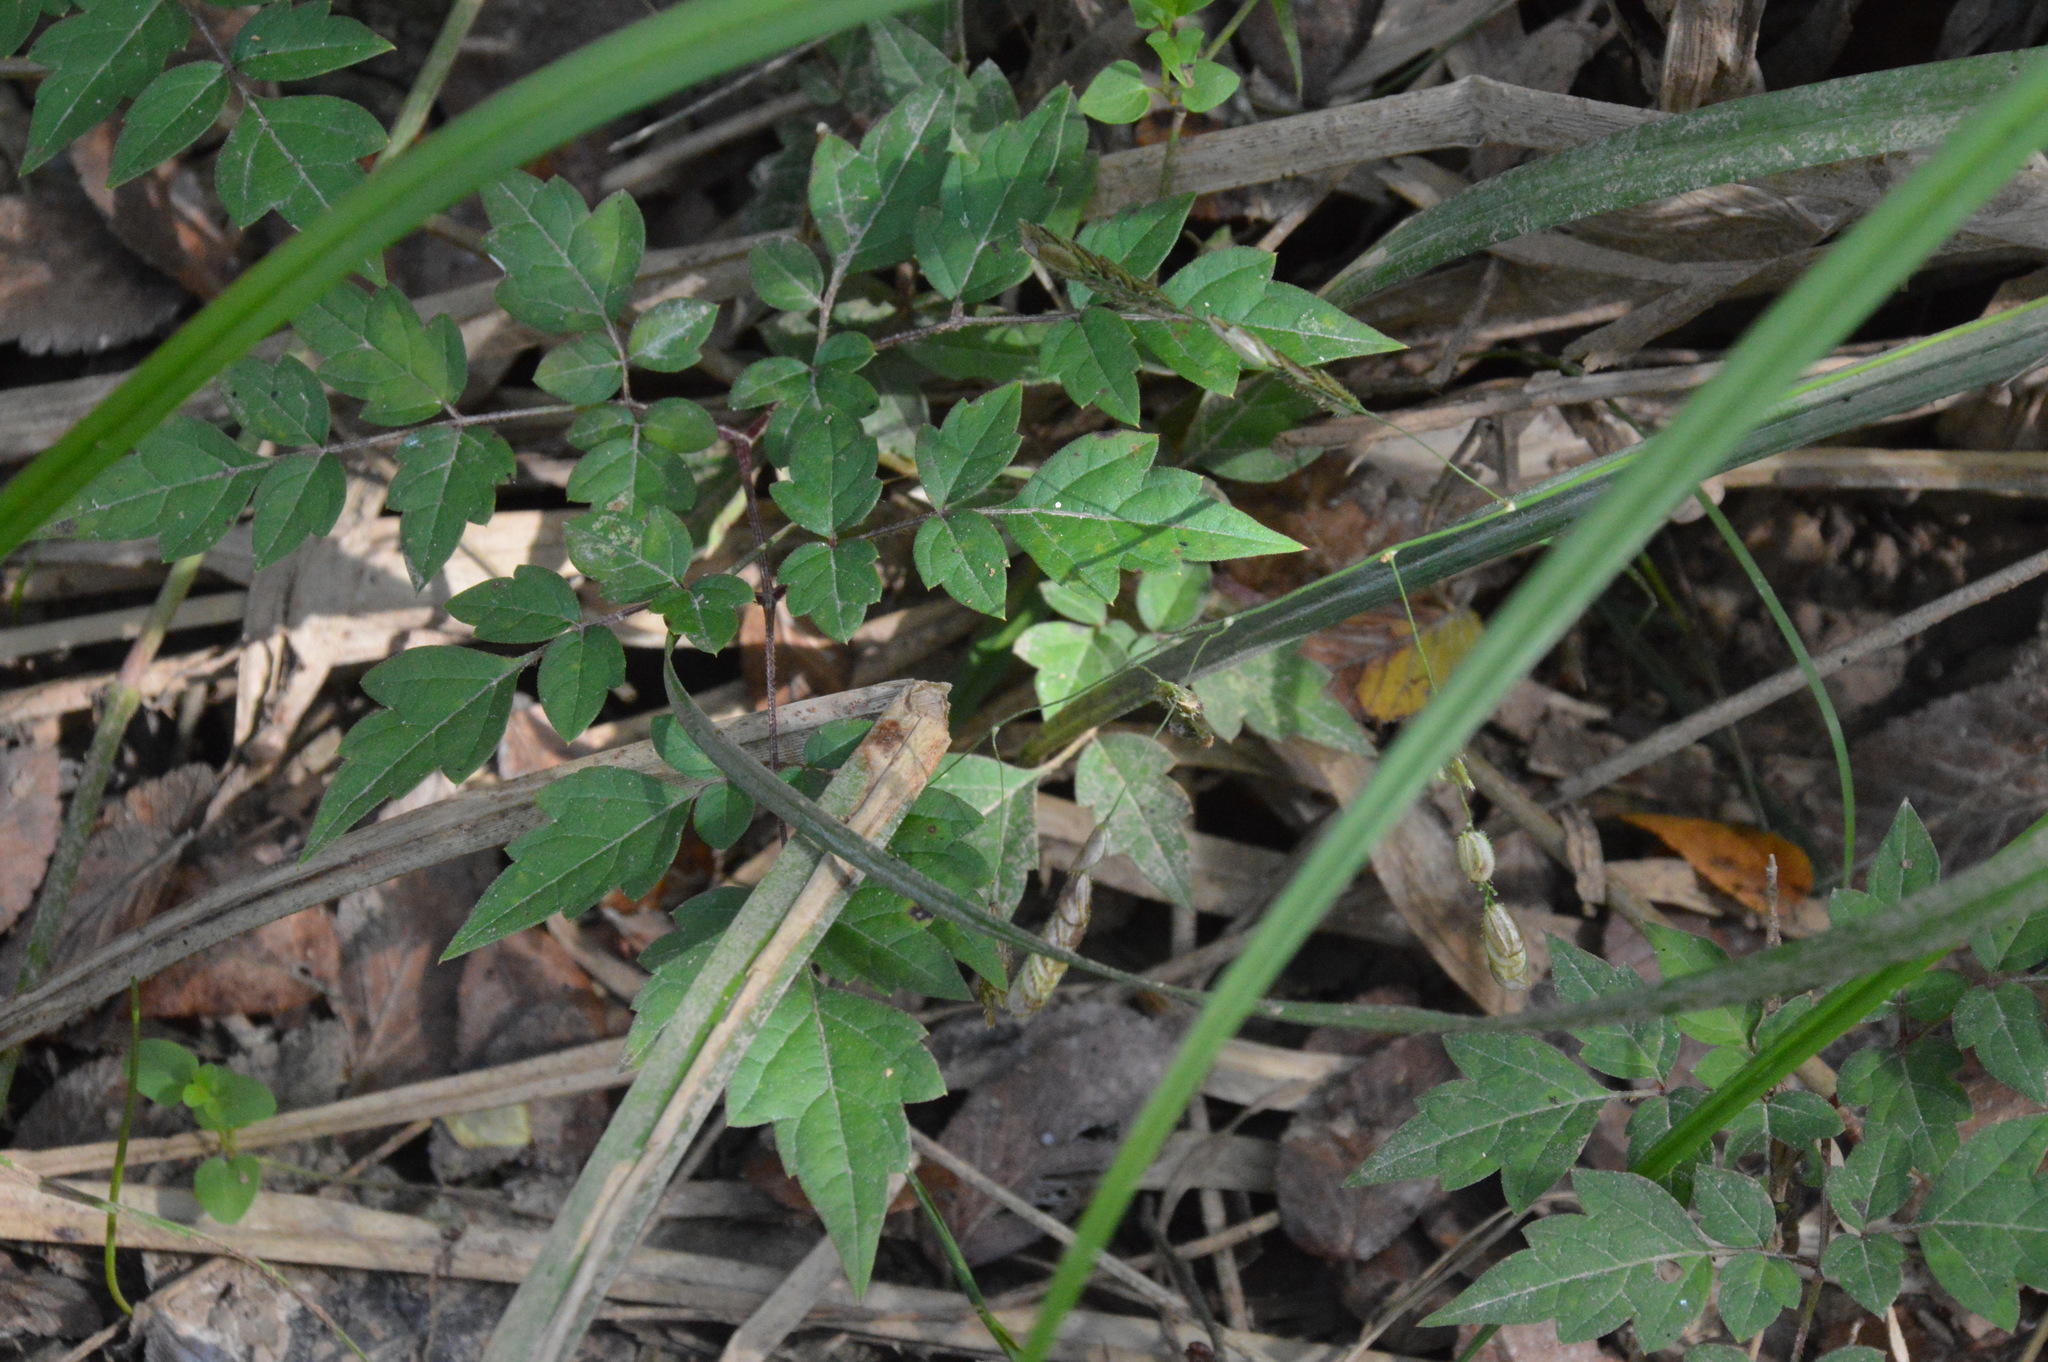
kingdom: Plantae
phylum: Tracheophyta
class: Magnoliopsida
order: Vitales
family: Vitaceae
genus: Nekemias
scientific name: Nekemias arborea
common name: Peppervine
